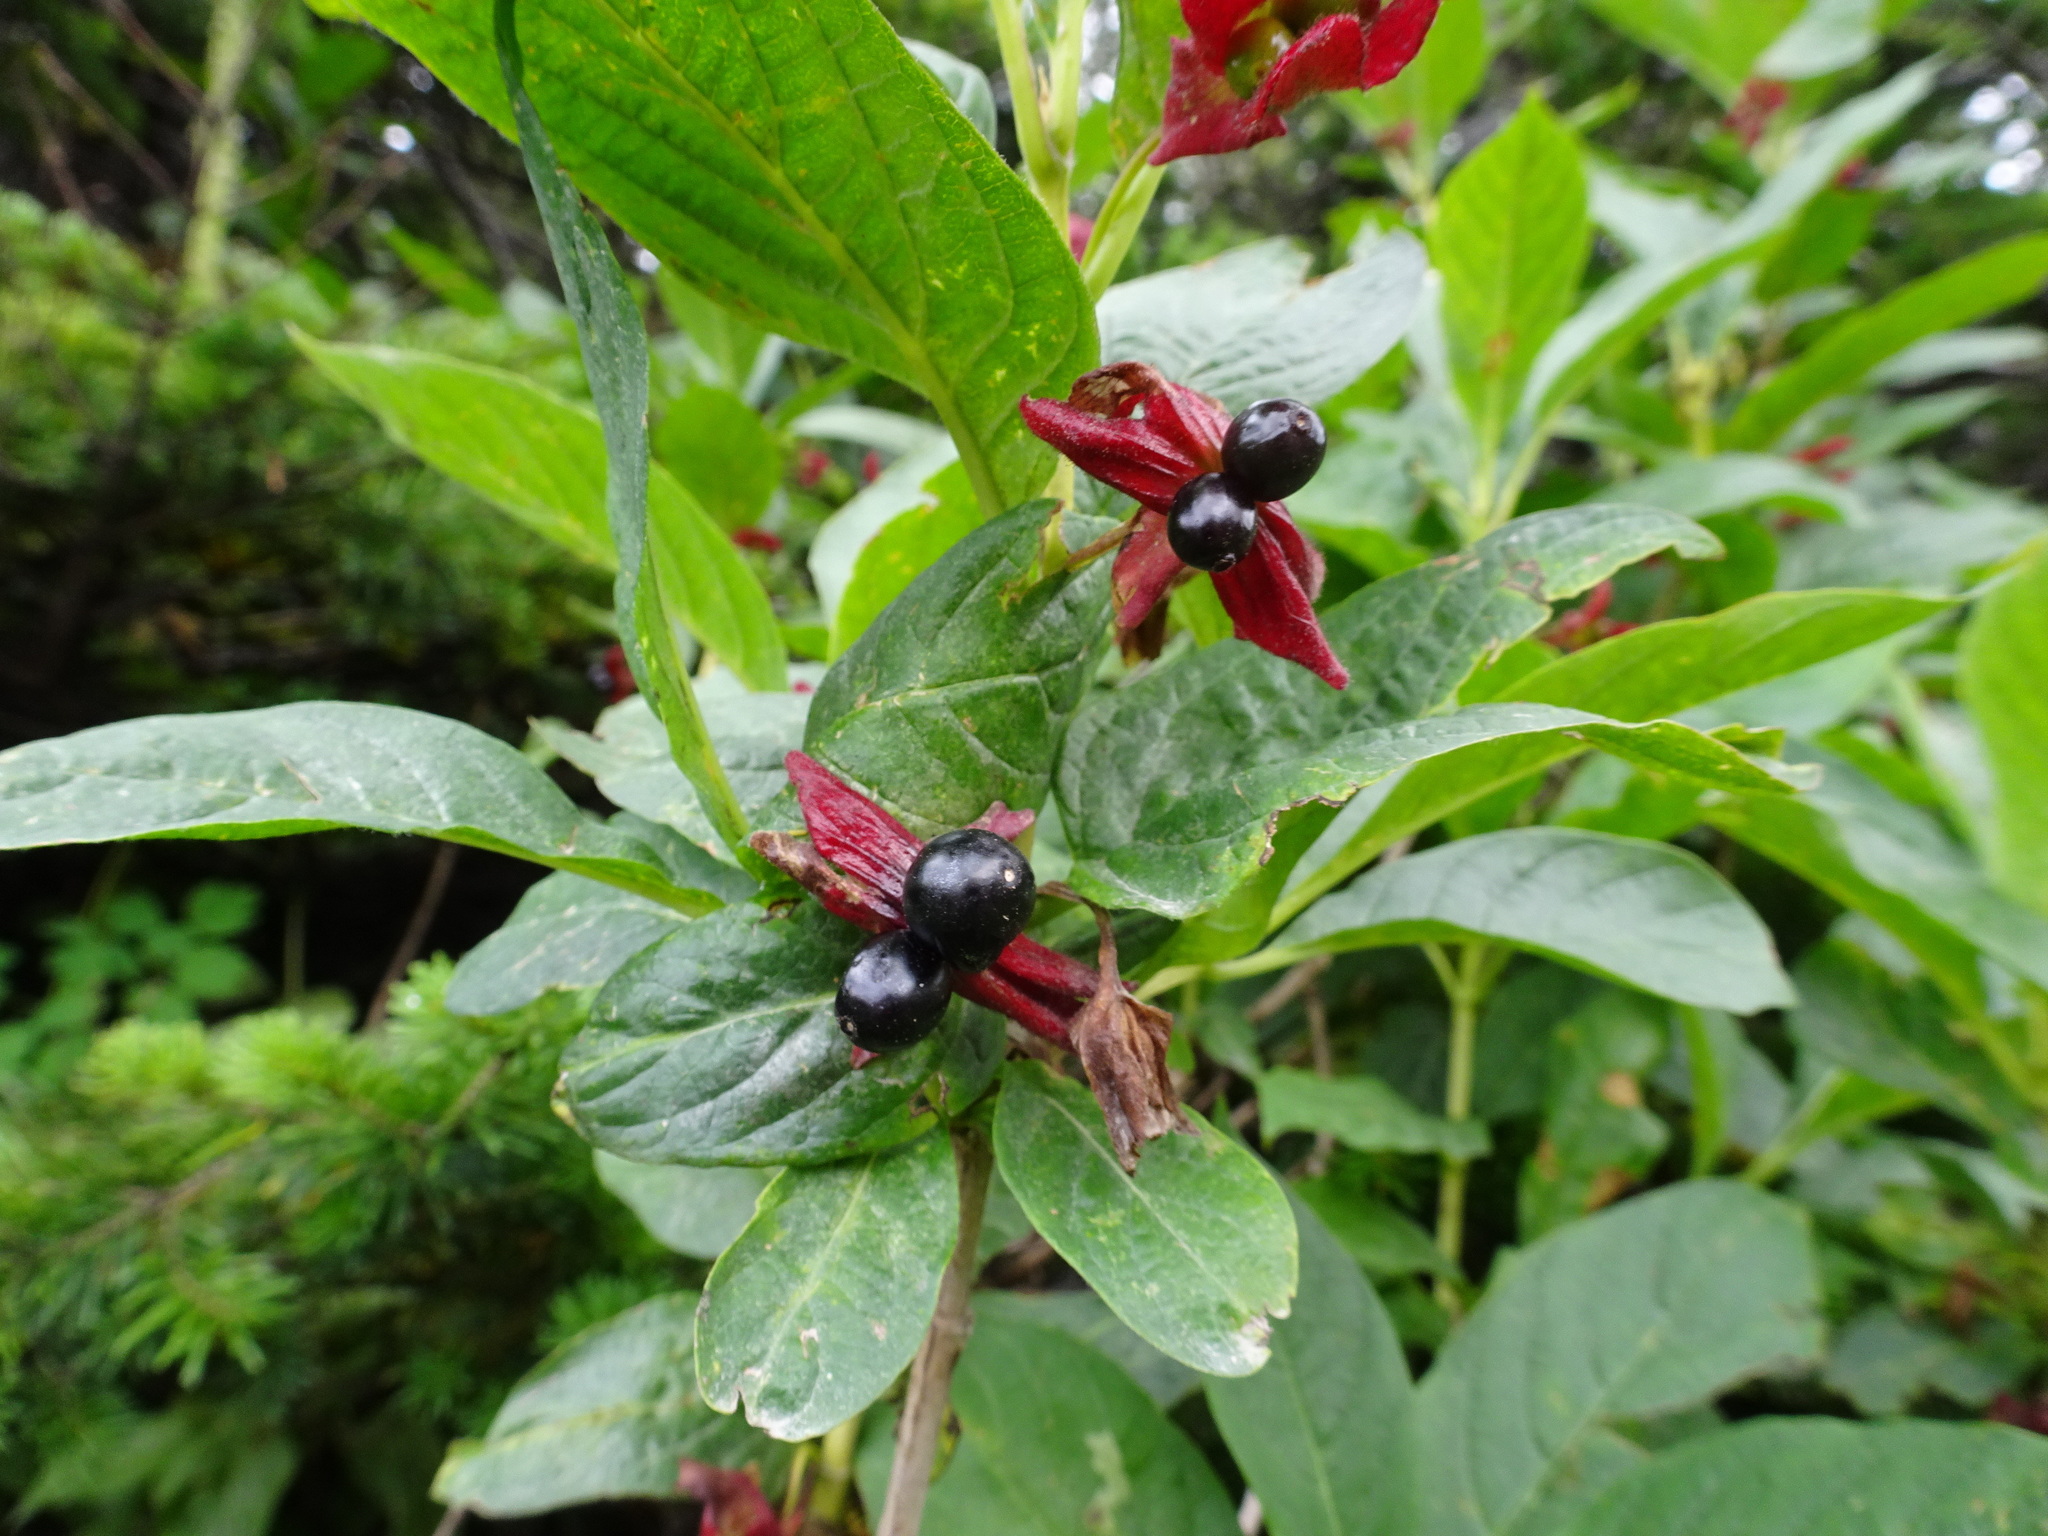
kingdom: Plantae
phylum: Tracheophyta
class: Magnoliopsida
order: Dipsacales
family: Caprifoliaceae
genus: Lonicera
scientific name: Lonicera involucrata
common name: Californian honeysuckle
